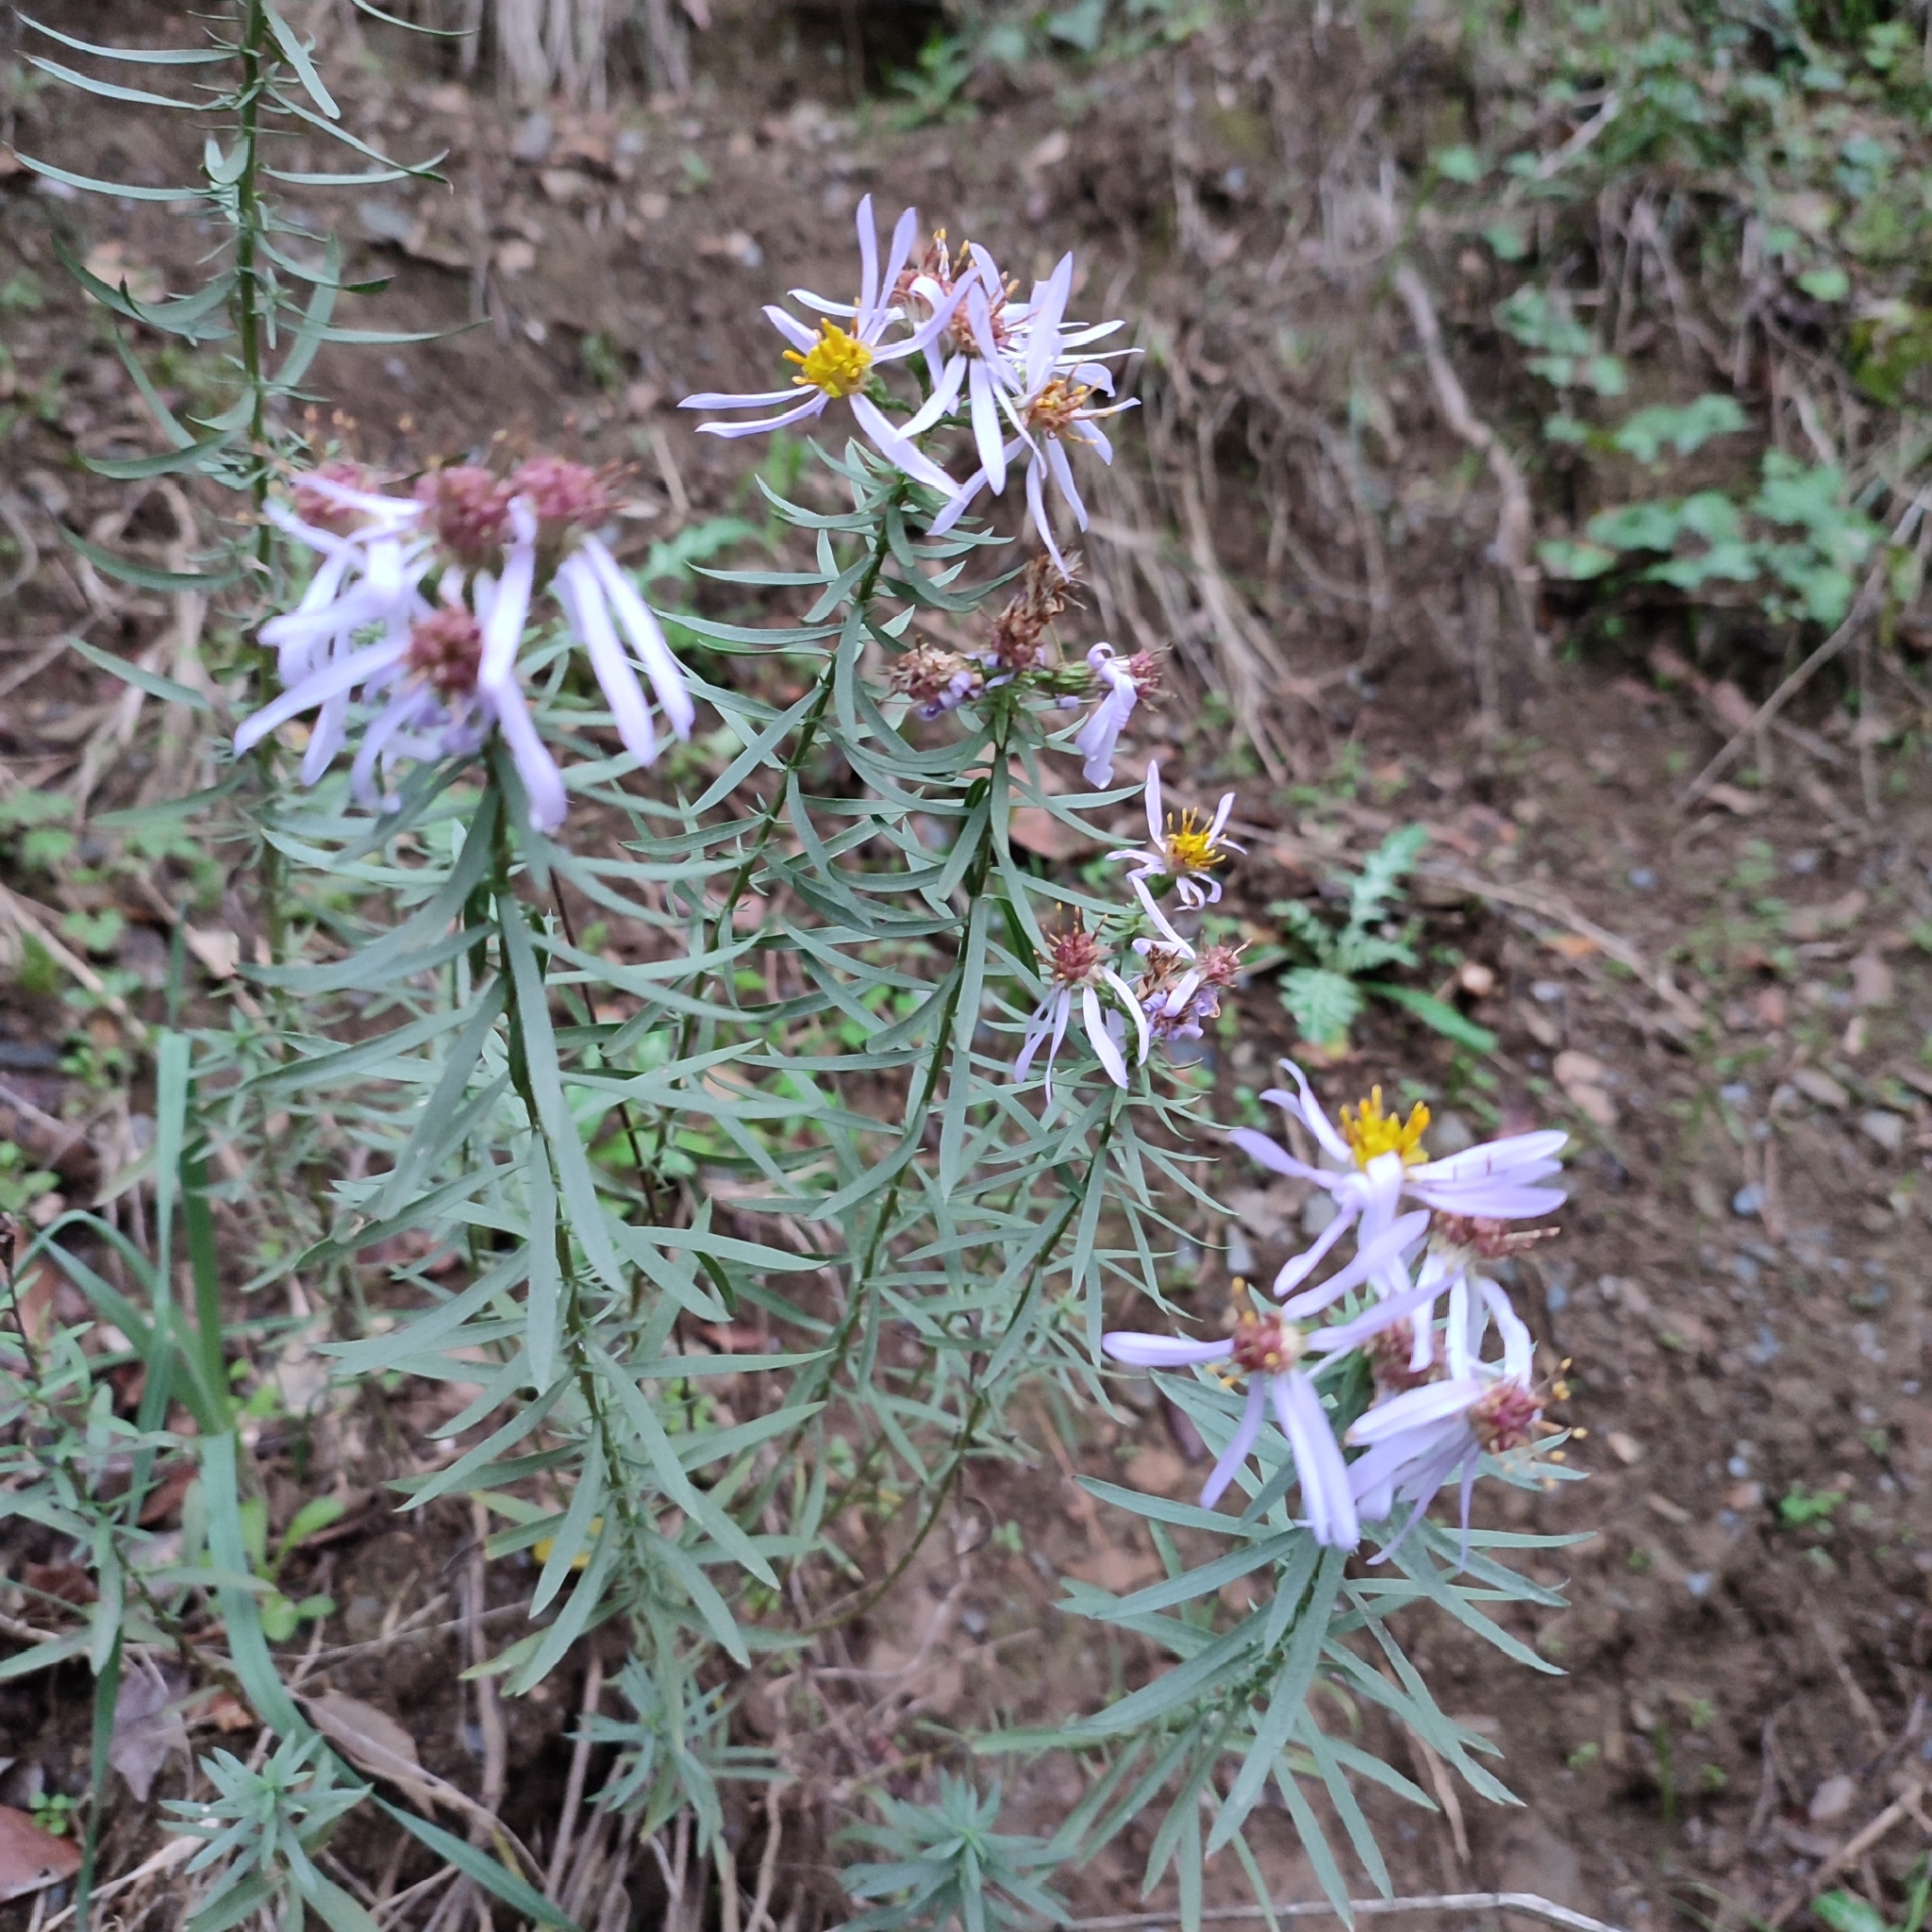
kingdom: Plantae
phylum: Tracheophyta
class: Magnoliopsida
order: Asterales
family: Asteraceae
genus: Galatella
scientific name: Galatella sedifolia
